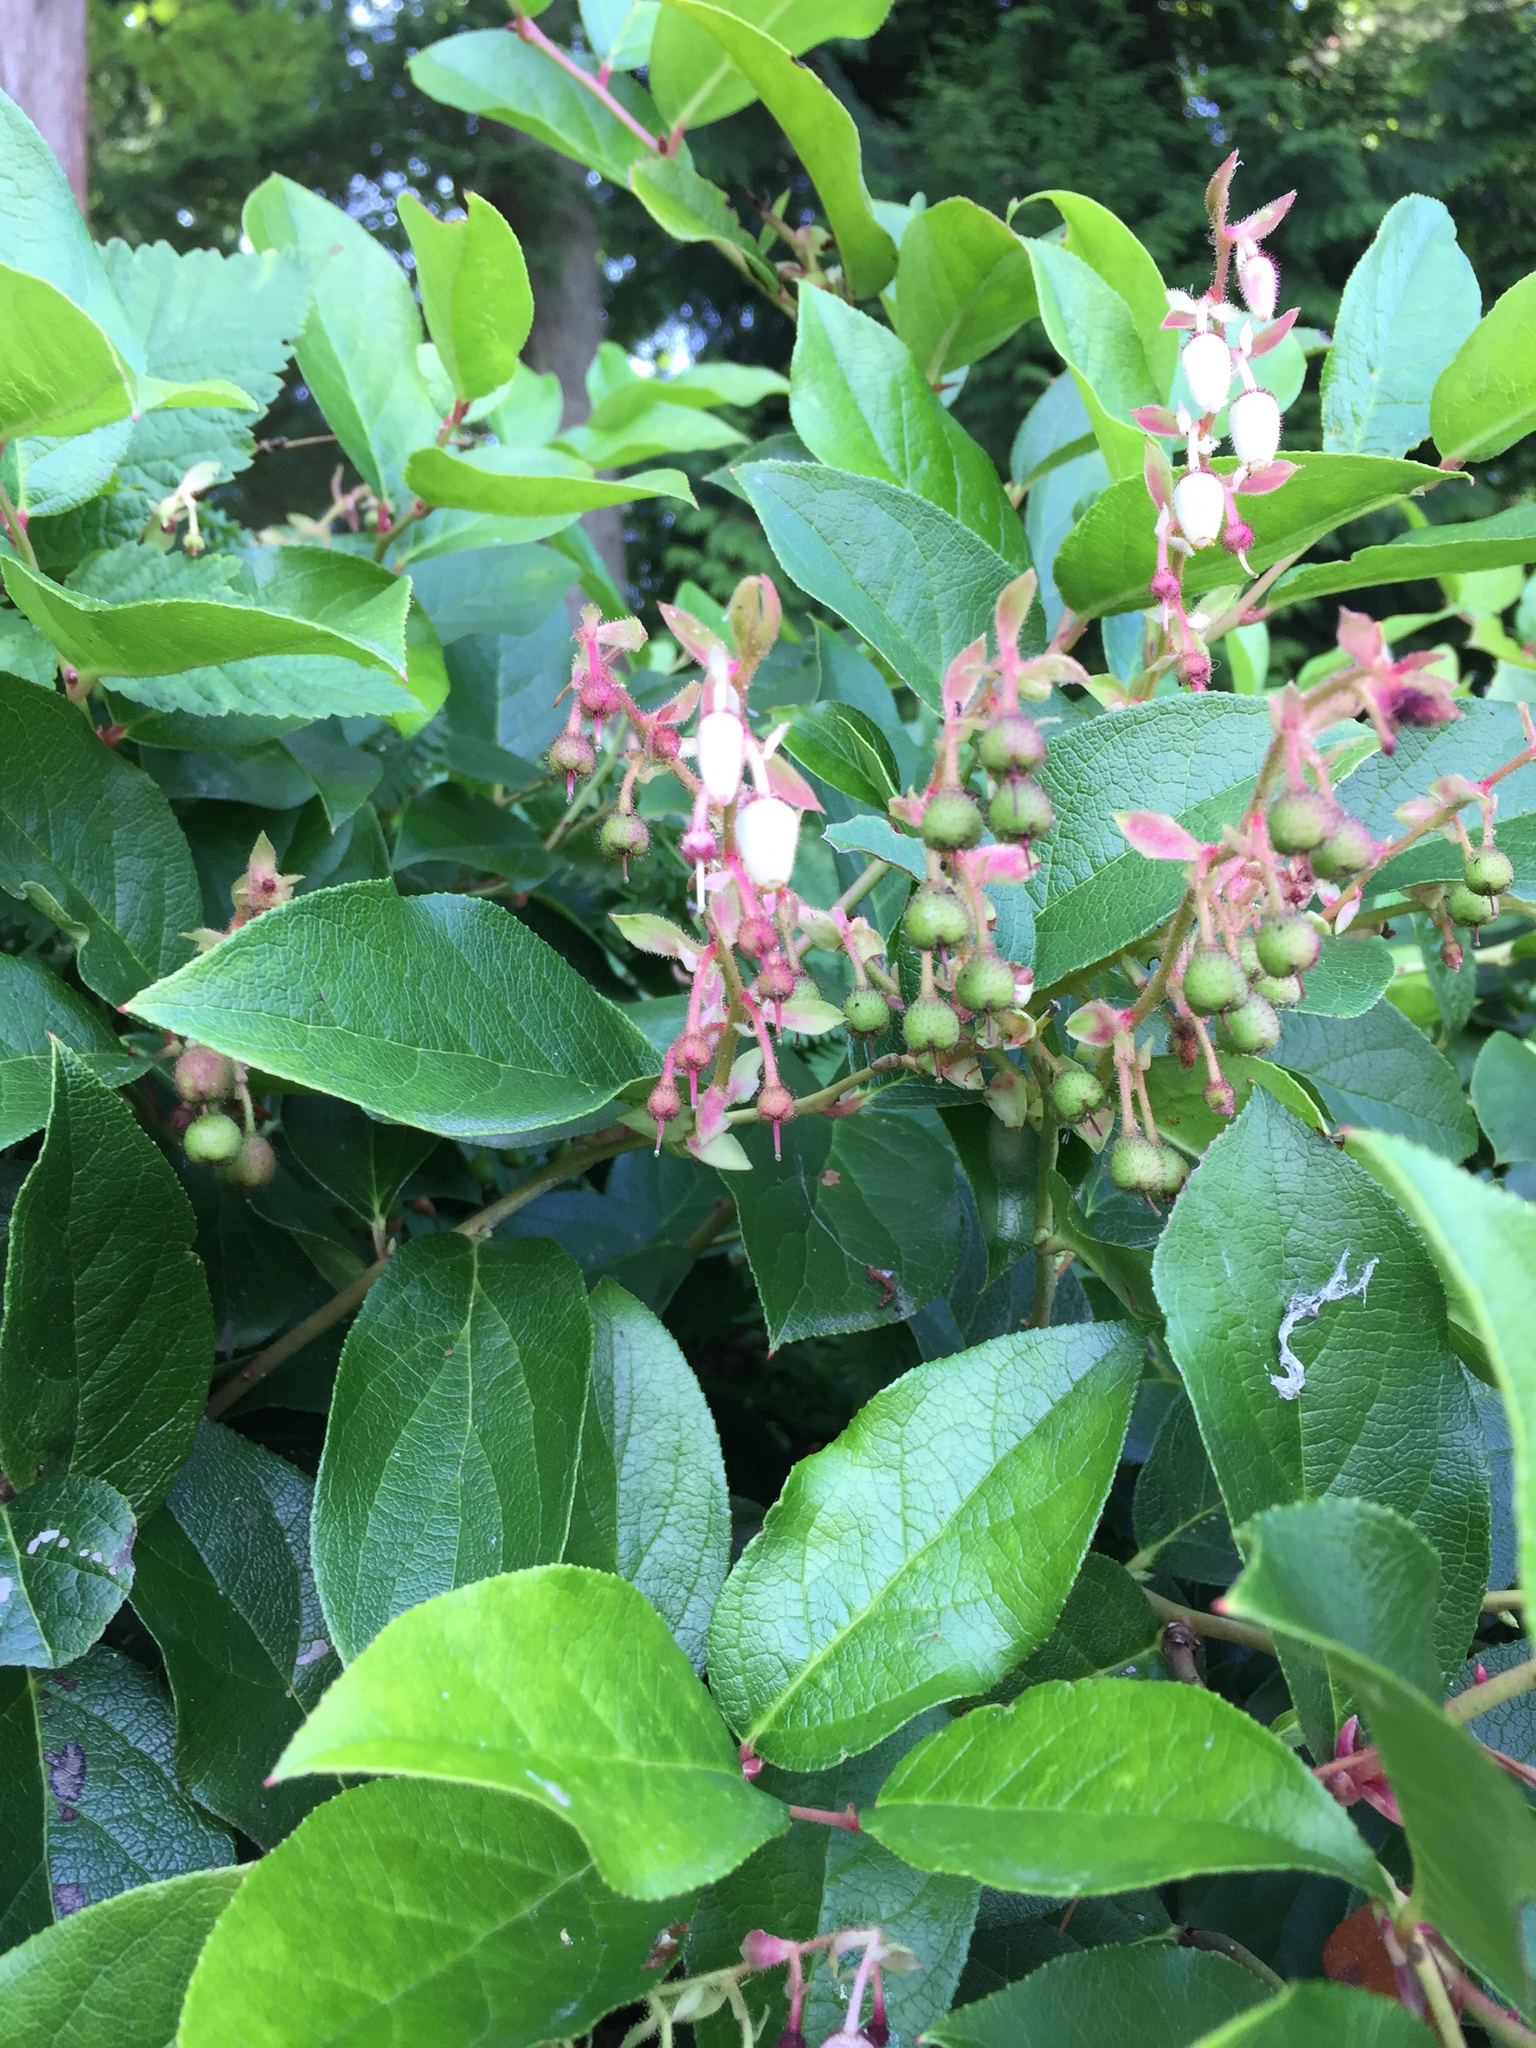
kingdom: Plantae
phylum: Tracheophyta
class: Magnoliopsida
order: Ericales
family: Ericaceae
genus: Gaultheria
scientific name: Gaultheria shallon
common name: Shallon
